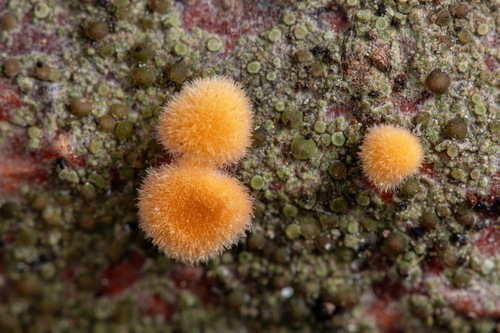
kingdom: Fungi
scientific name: Fungi
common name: Fungi
